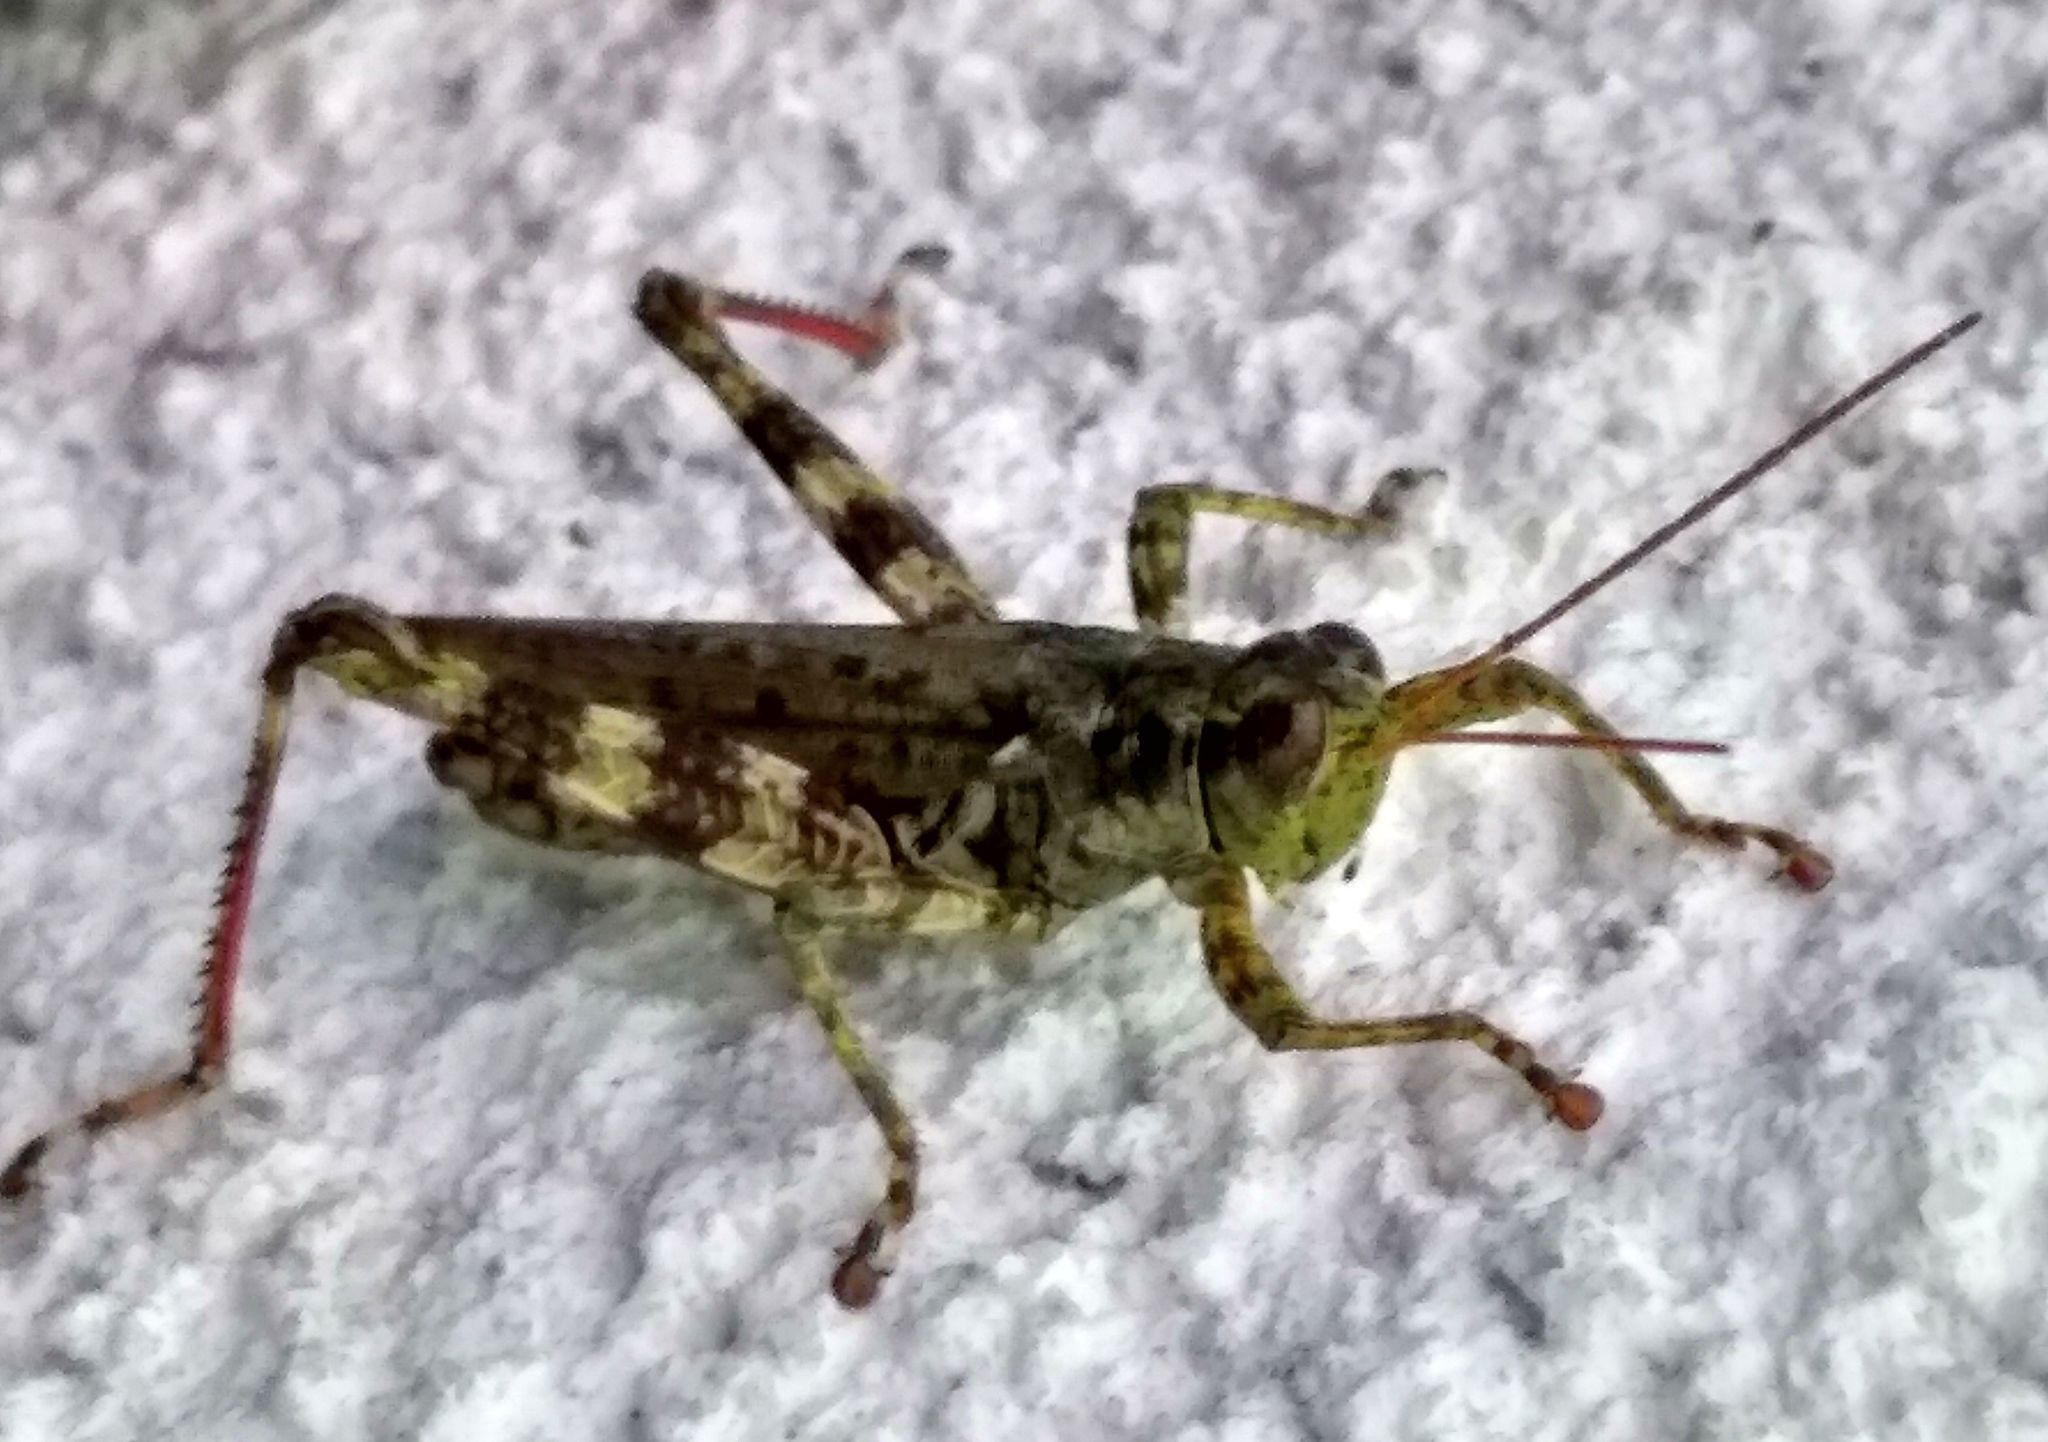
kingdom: Animalia
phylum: Arthropoda
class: Insecta
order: Orthoptera
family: Acrididae
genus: Melanoplus
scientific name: Melanoplus punctulatus
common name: Pine-tree spur-throat grasshopper
